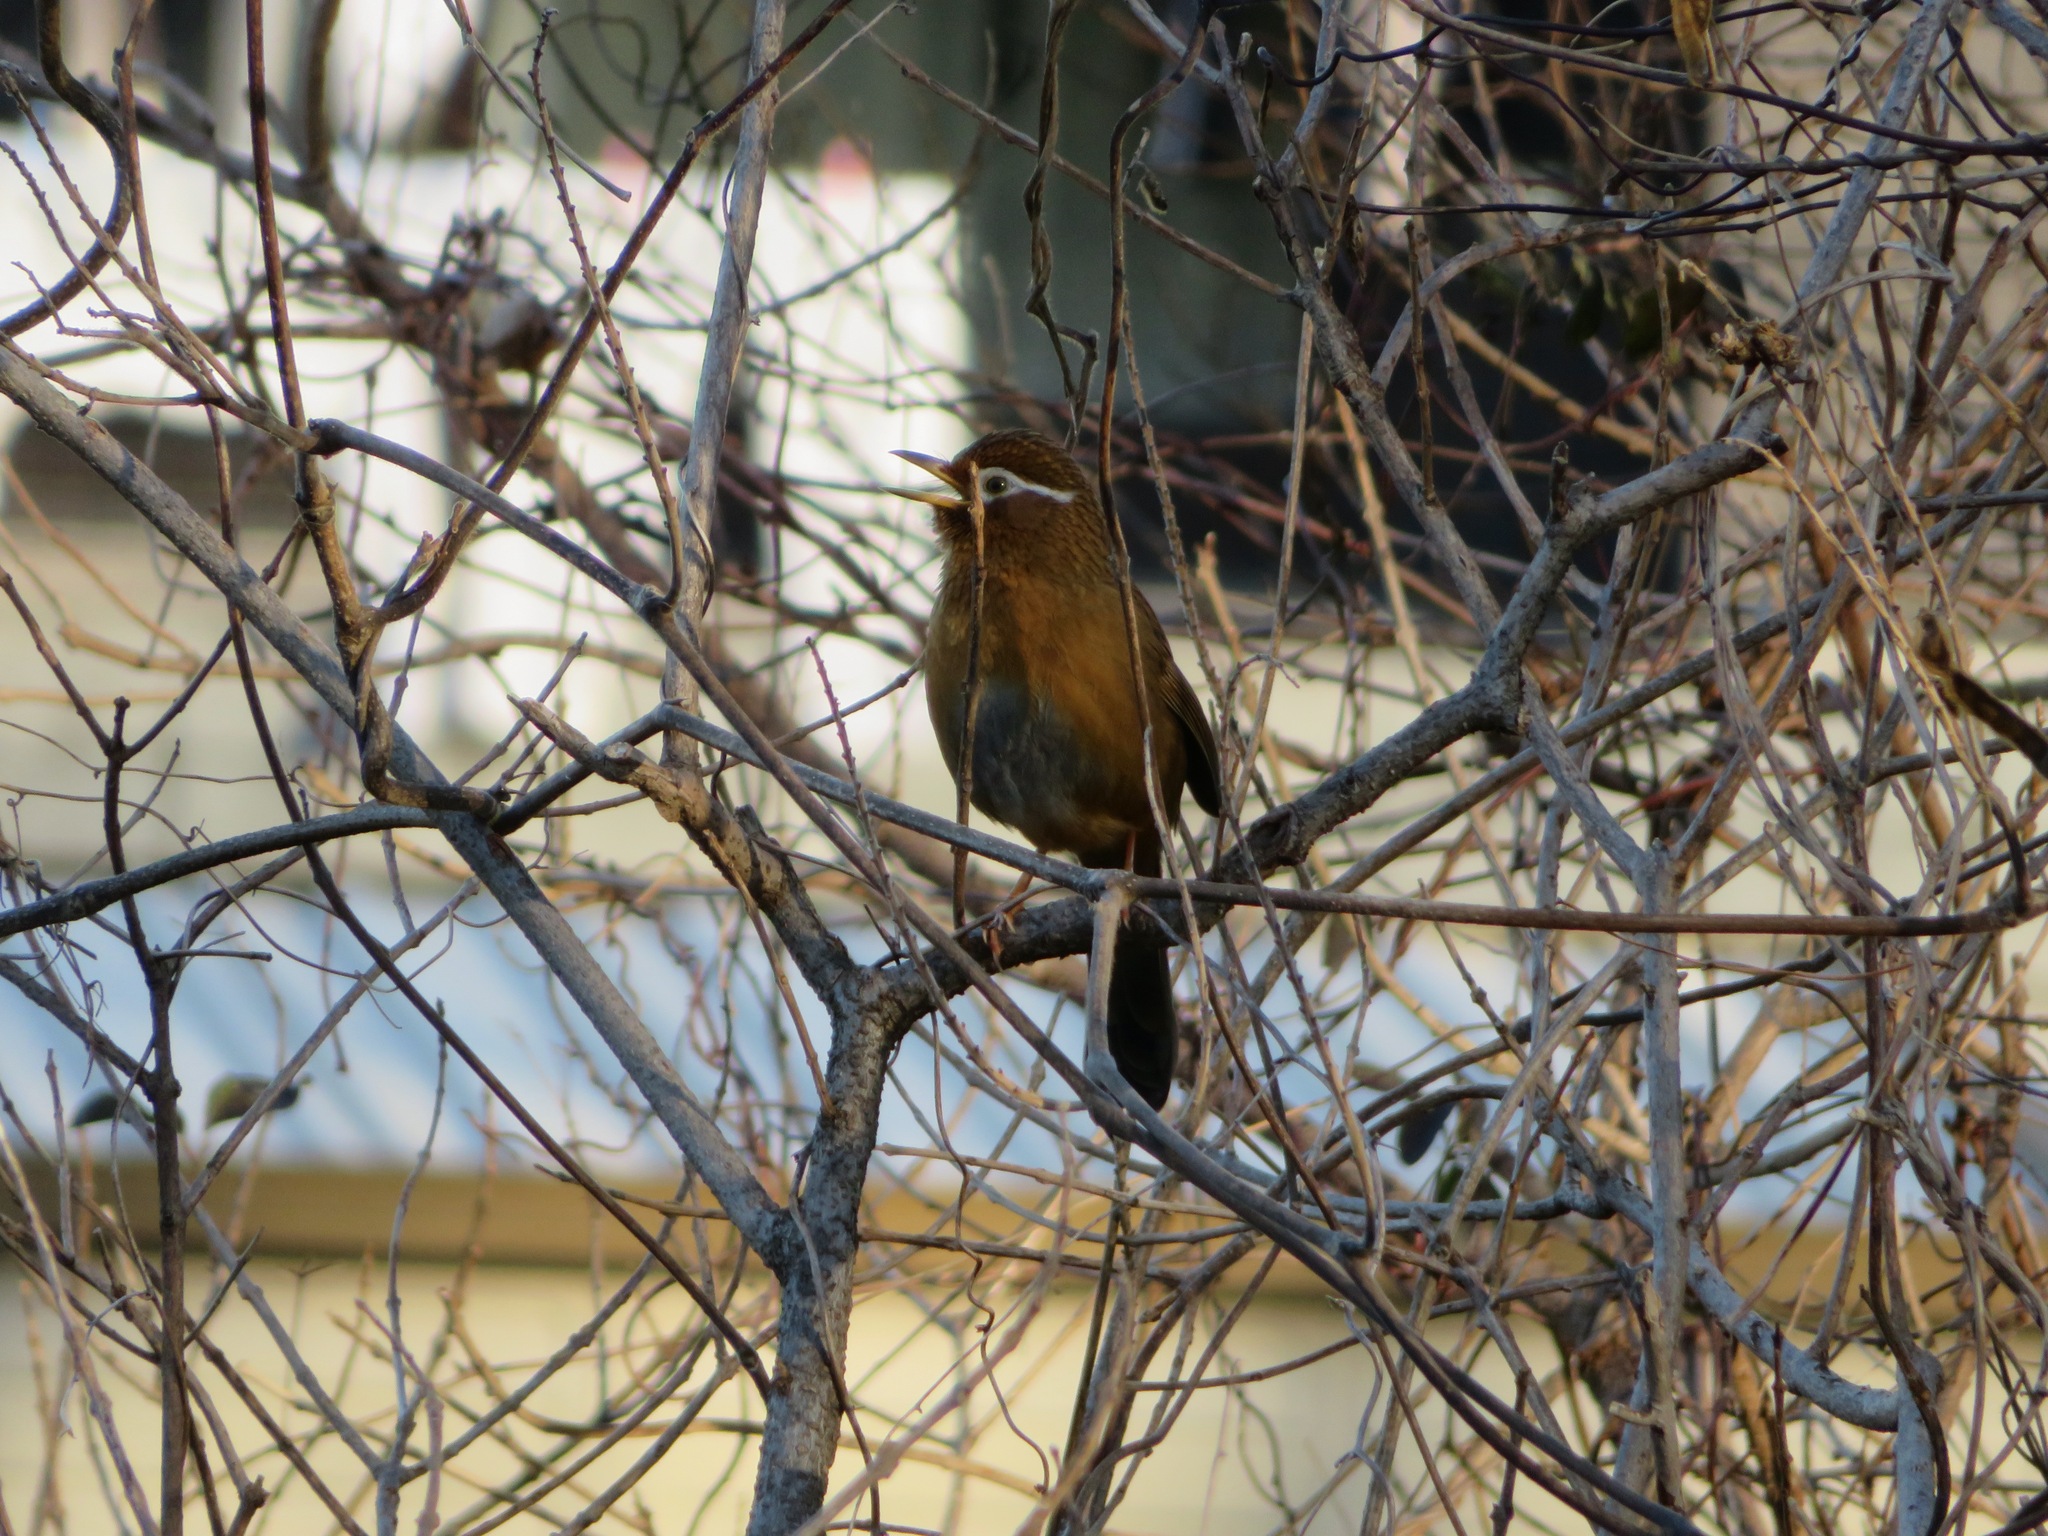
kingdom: Animalia
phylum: Chordata
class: Aves
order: Passeriformes
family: Leiothrichidae
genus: Garrulax
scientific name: Garrulax canorus
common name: Chinese hwamei
